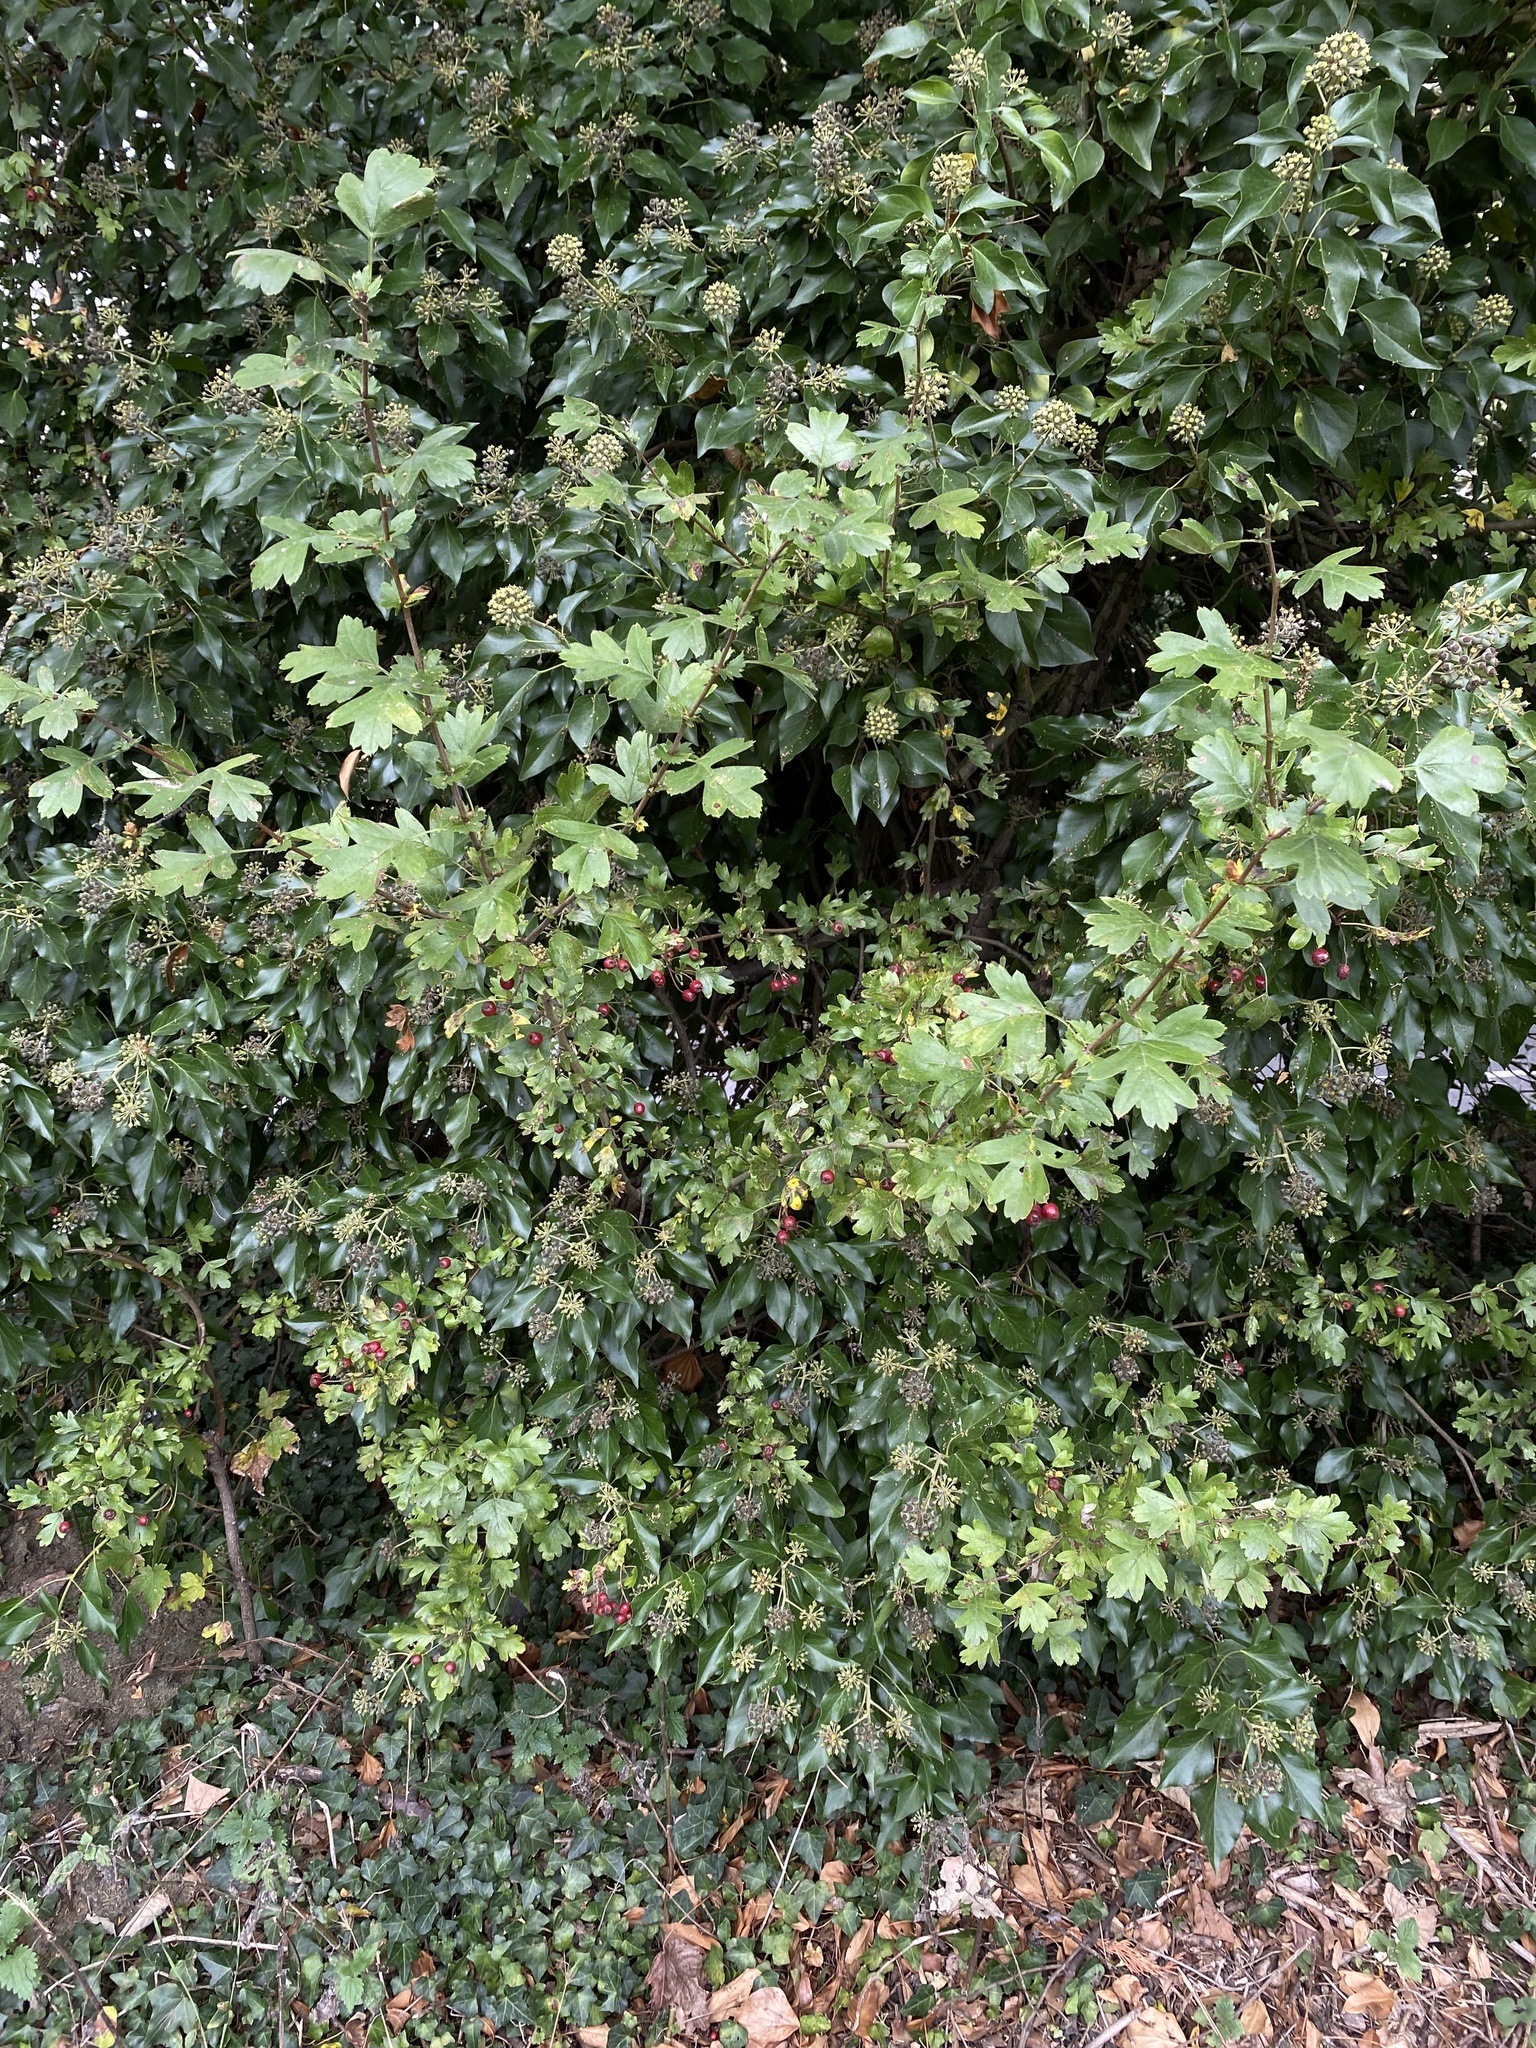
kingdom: Plantae
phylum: Tracheophyta
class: Magnoliopsida
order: Rosales
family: Rosaceae
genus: Crataegus
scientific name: Crataegus monogyna
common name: Hawthorn
